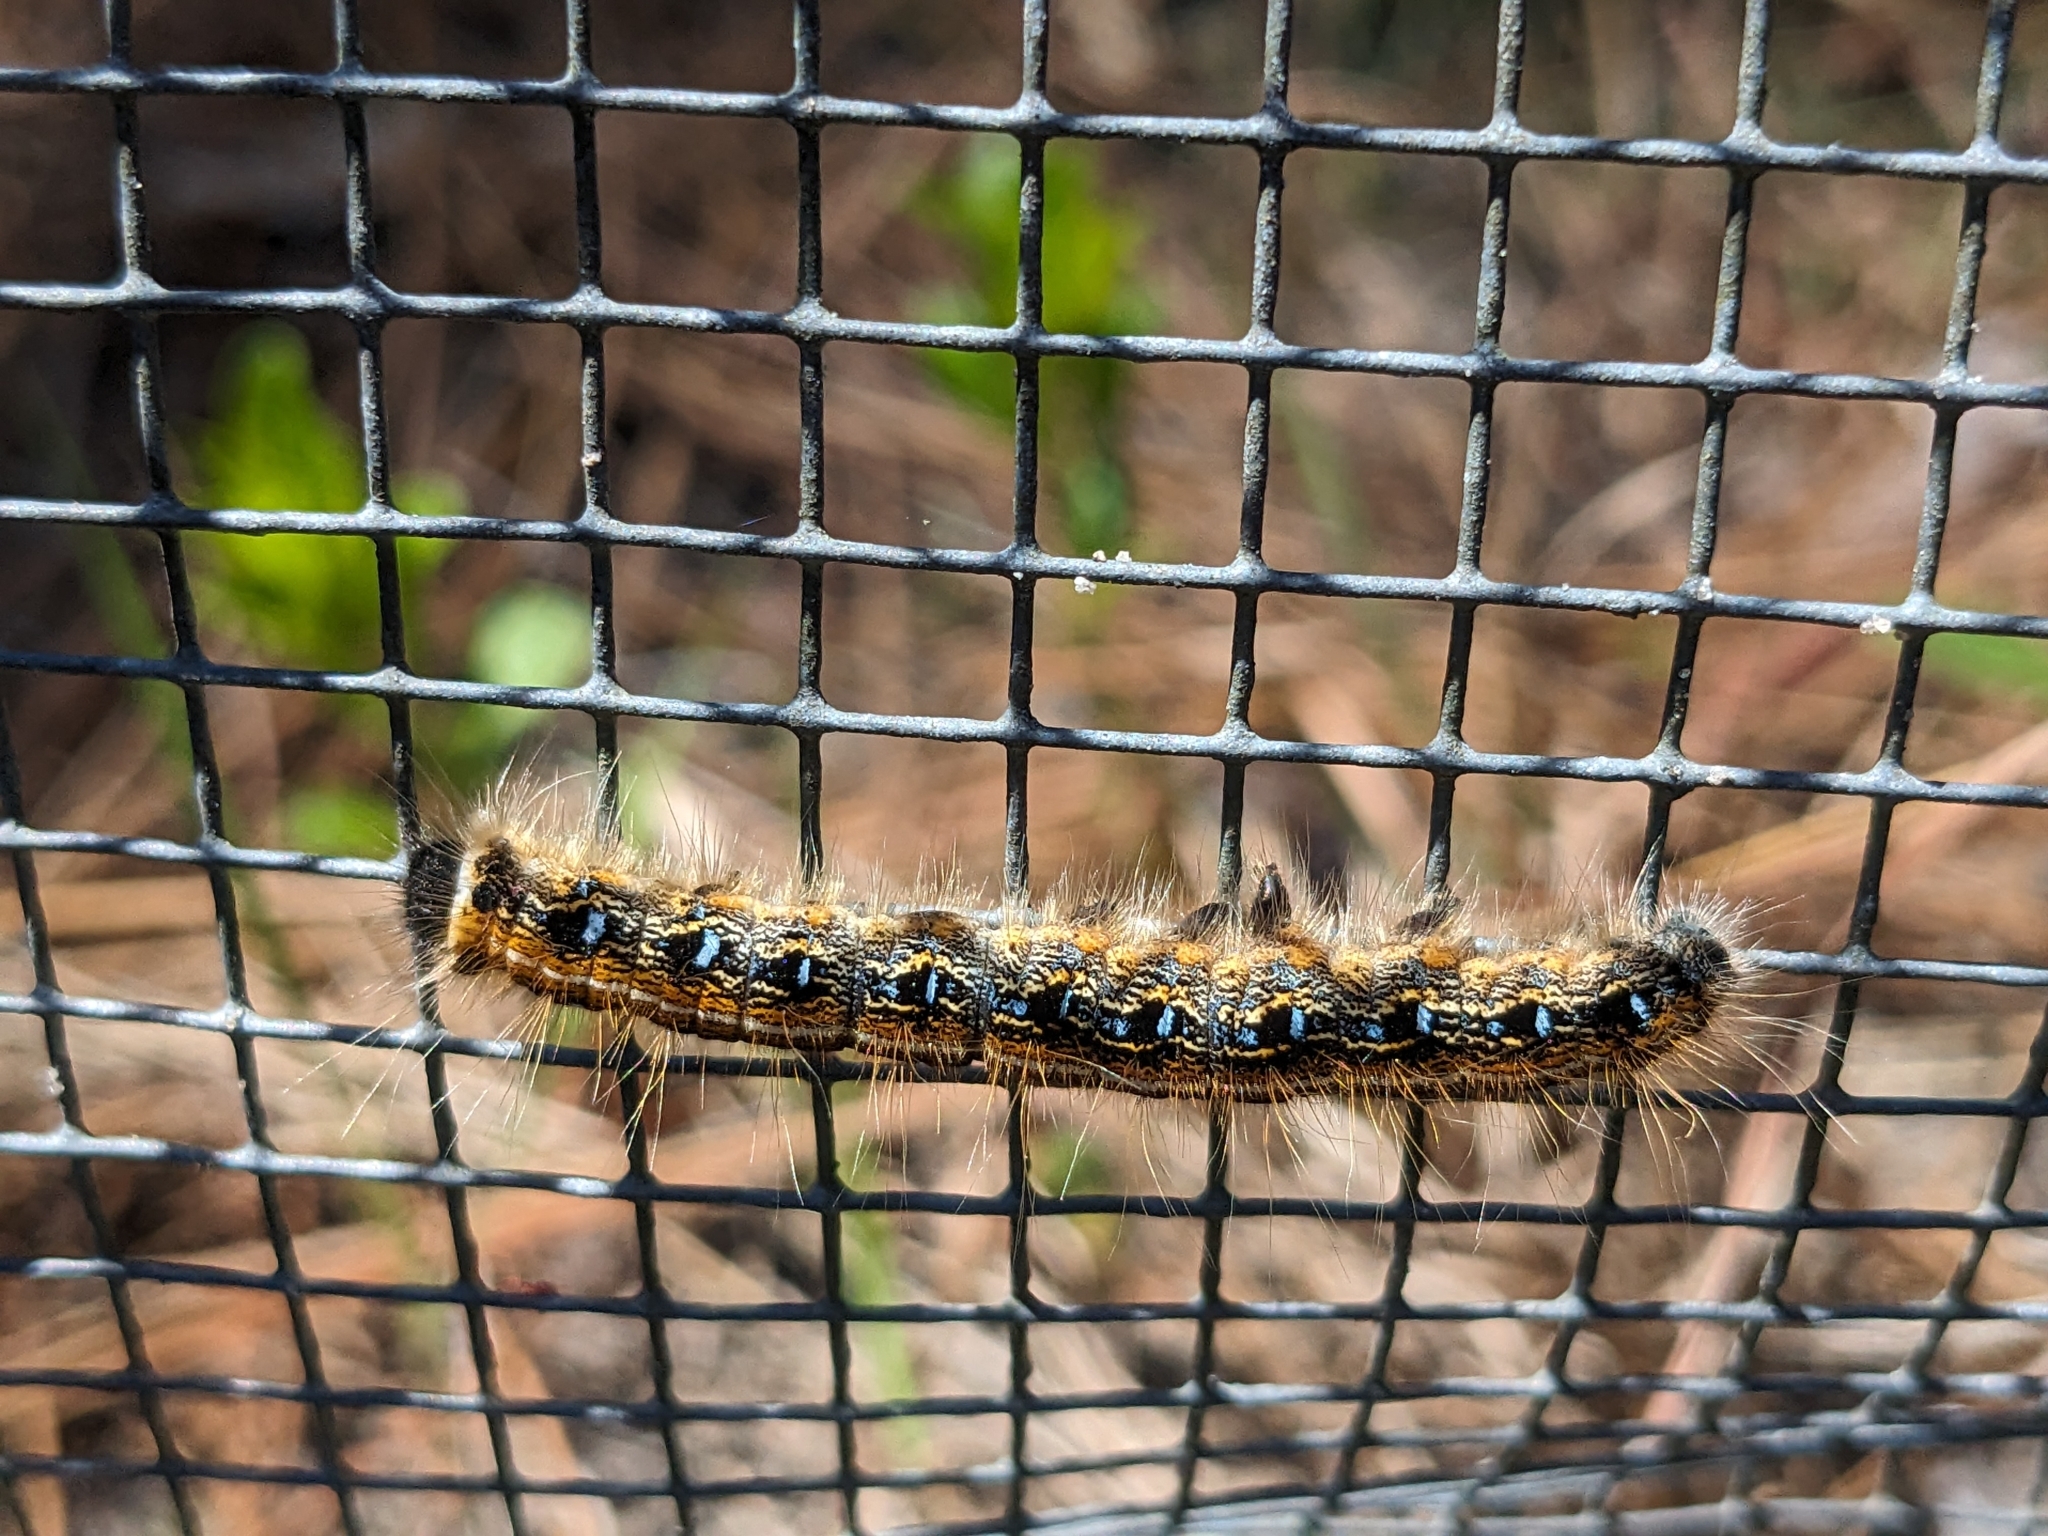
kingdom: Animalia
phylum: Arthropoda
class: Insecta
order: Lepidoptera
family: Lasiocampidae
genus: Malacosoma
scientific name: Malacosoma americana
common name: Eastern tent caterpillar moth
